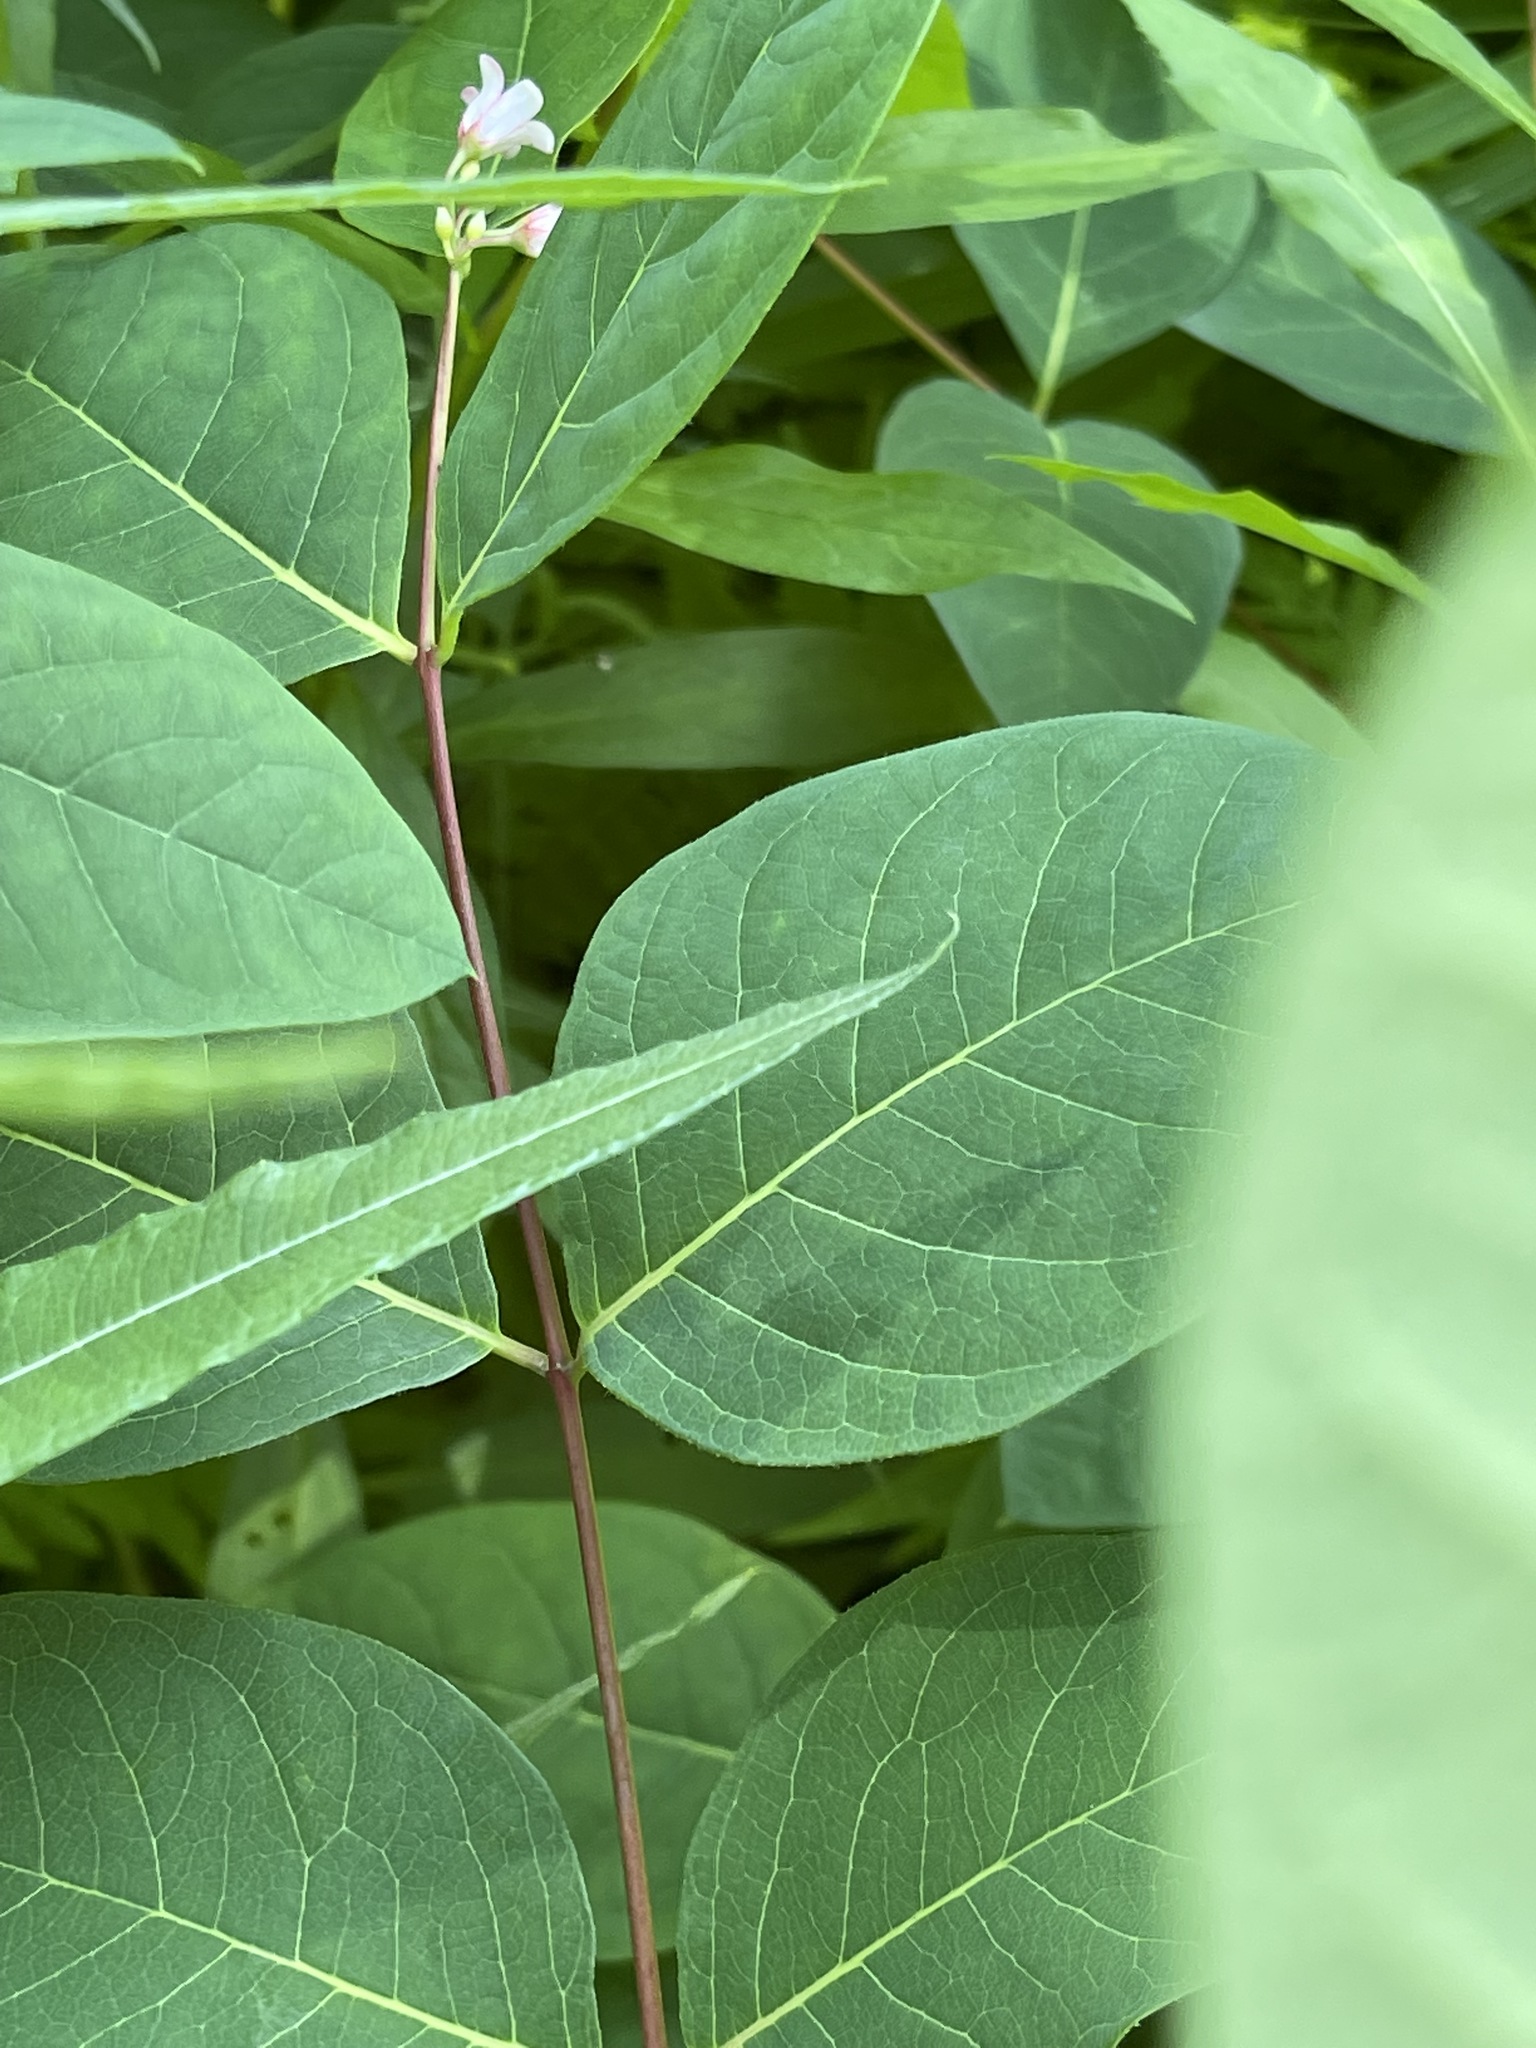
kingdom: Plantae
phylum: Tracheophyta
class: Magnoliopsida
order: Gentianales
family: Apocynaceae
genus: Apocynum
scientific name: Apocynum androsaemifolium
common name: Spreading dogbane
